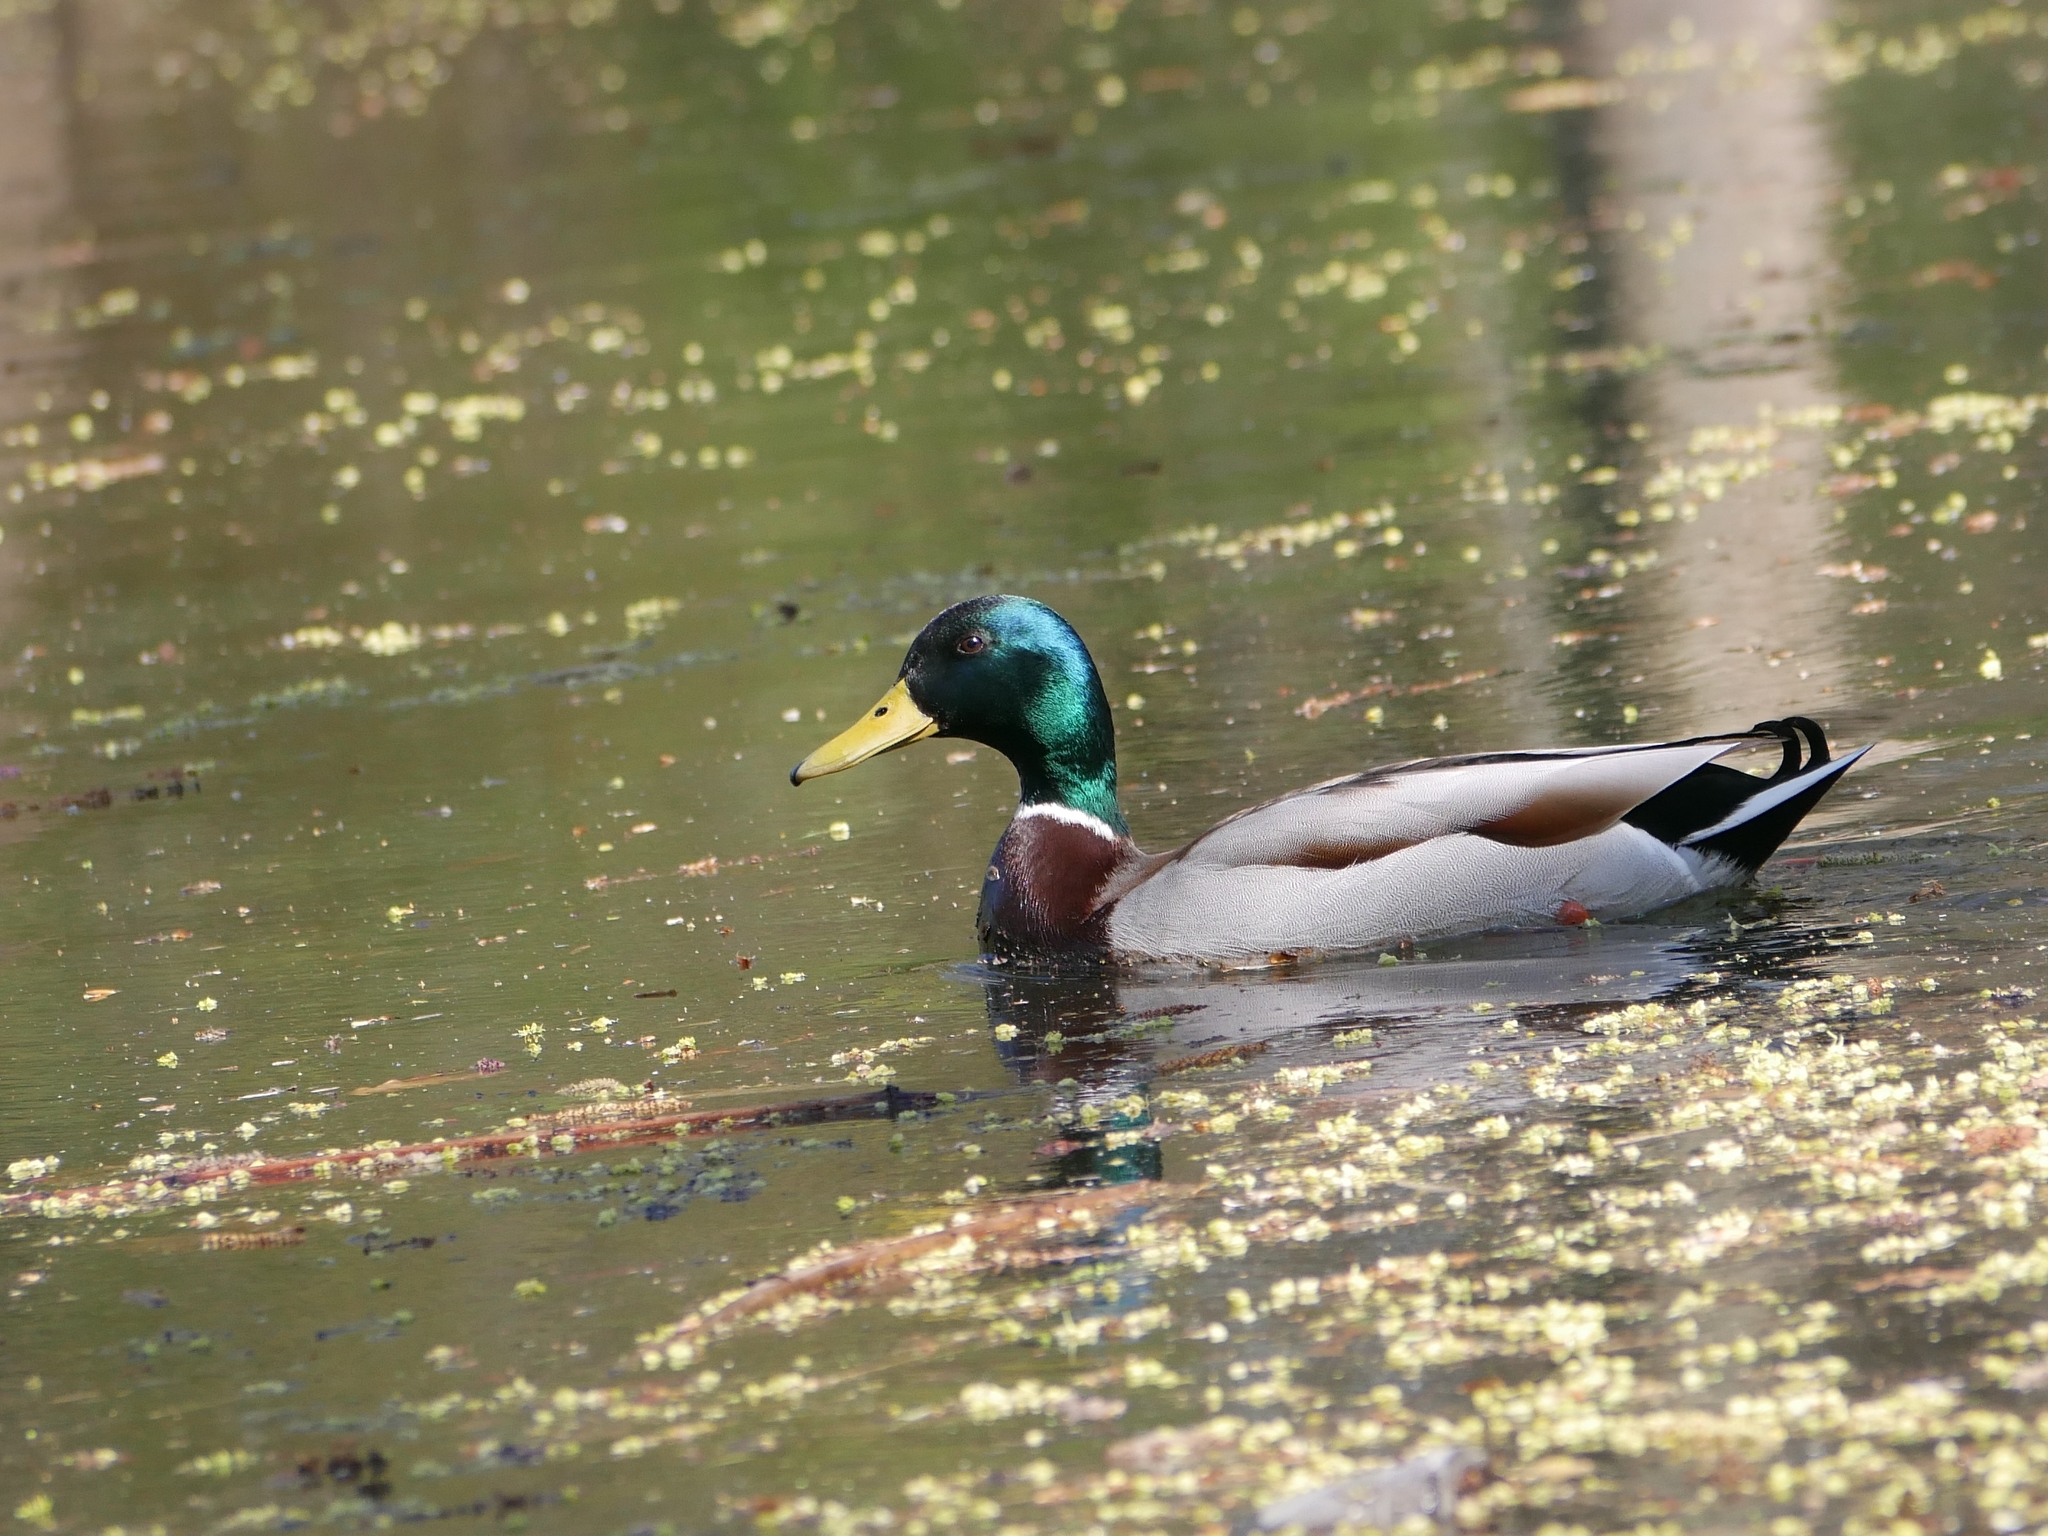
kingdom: Animalia
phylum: Chordata
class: Aves
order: Anseriformes
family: Anatidae
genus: Anas
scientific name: Anas platyrhynchos
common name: Mallard
